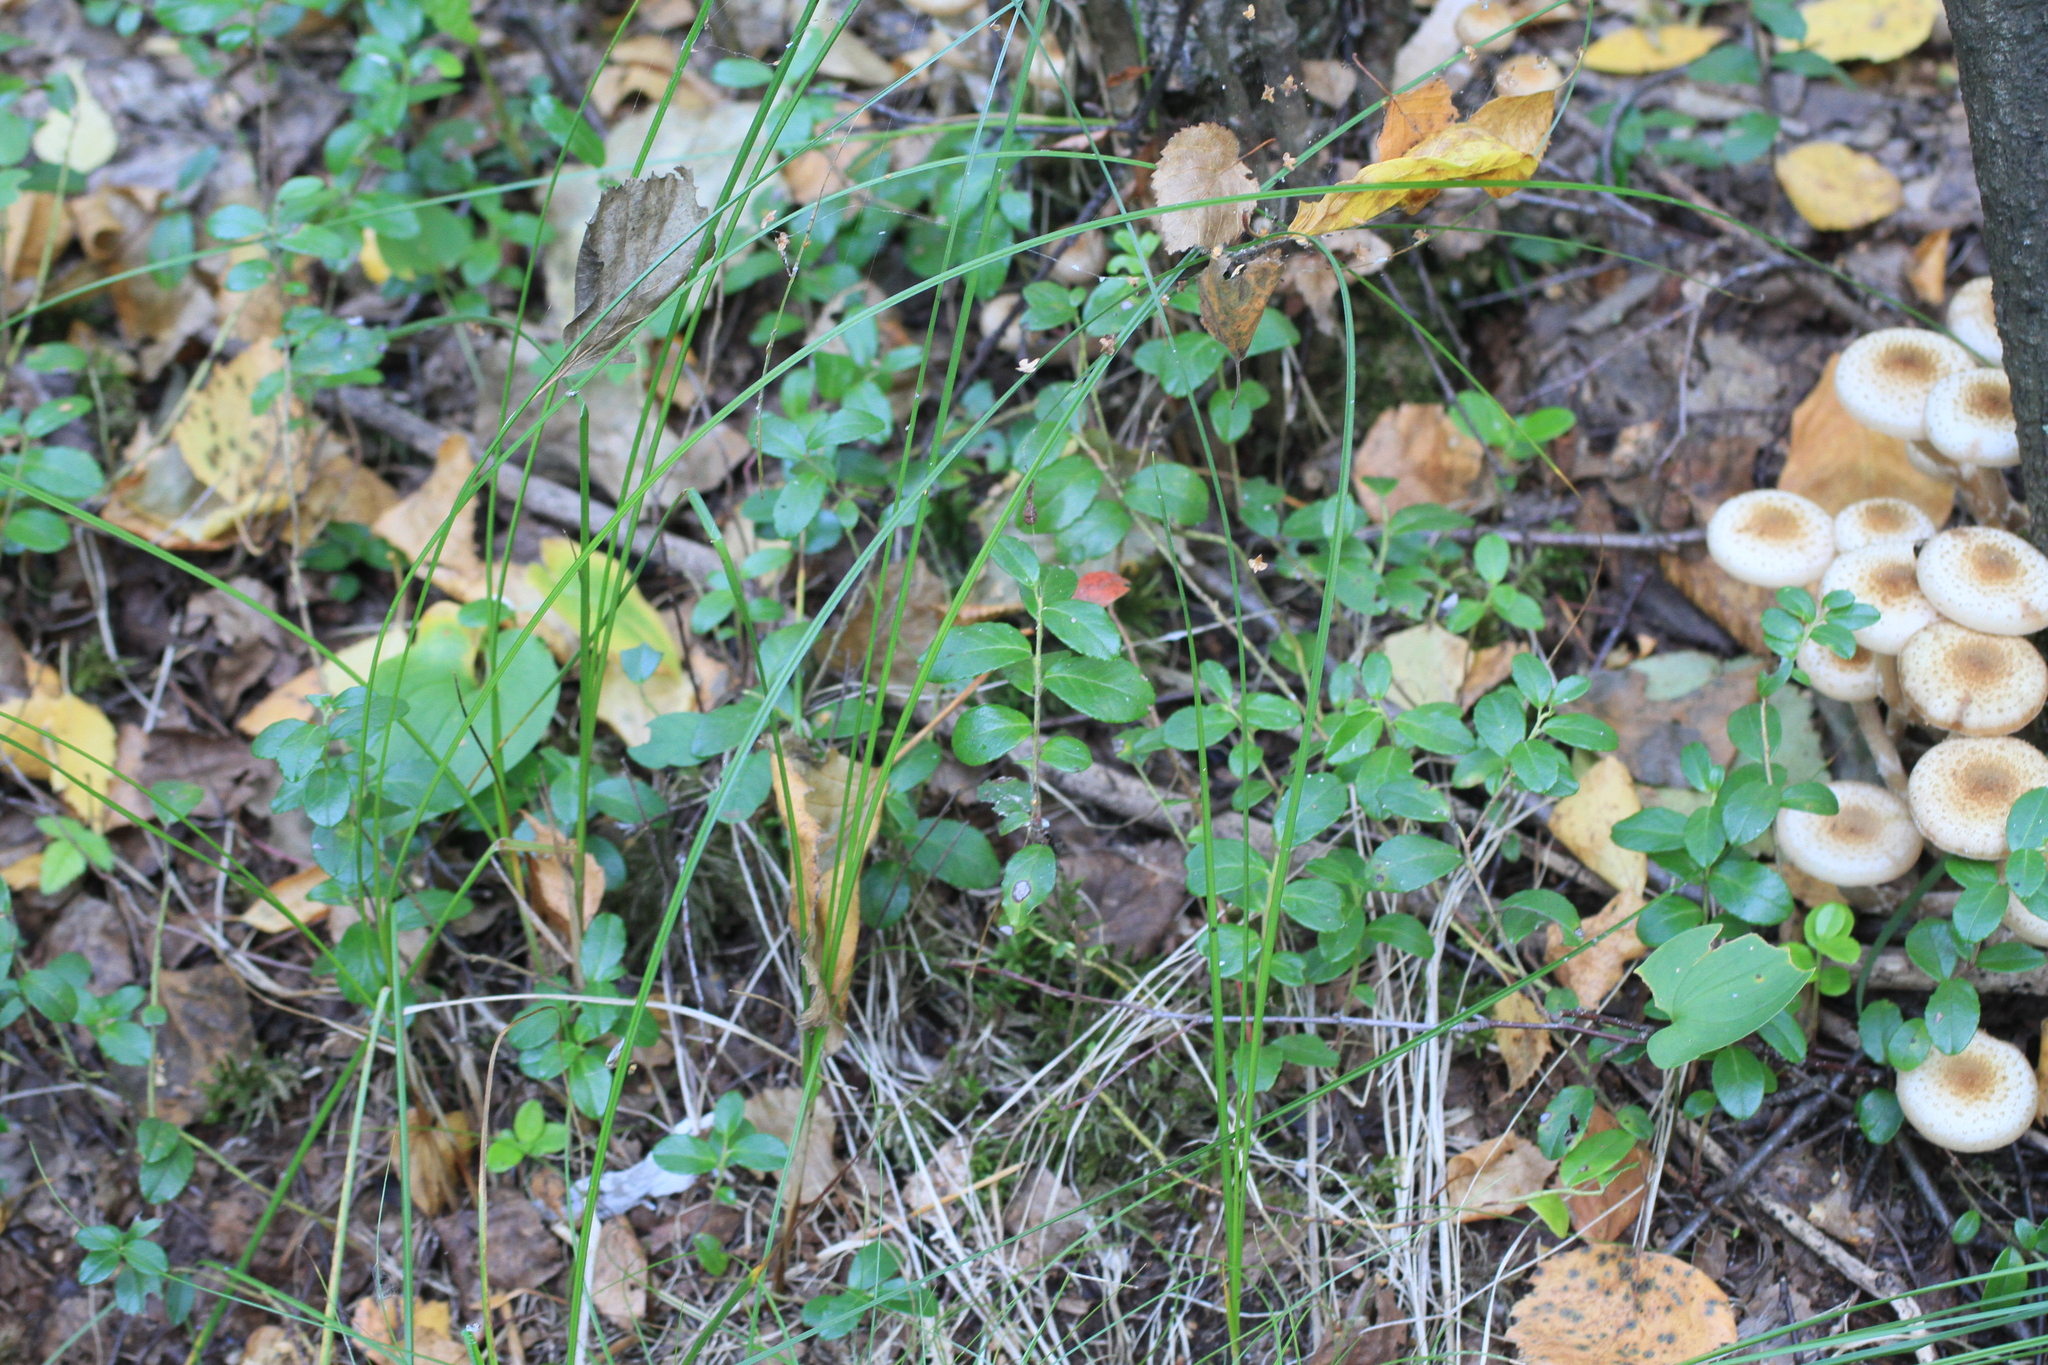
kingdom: Plantae
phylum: Tracheophyta
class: Magnoliopsida
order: Ericales
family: Ericaceae
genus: Vaccinium
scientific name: Vaccinium vitis-idaea
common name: Cowberry
